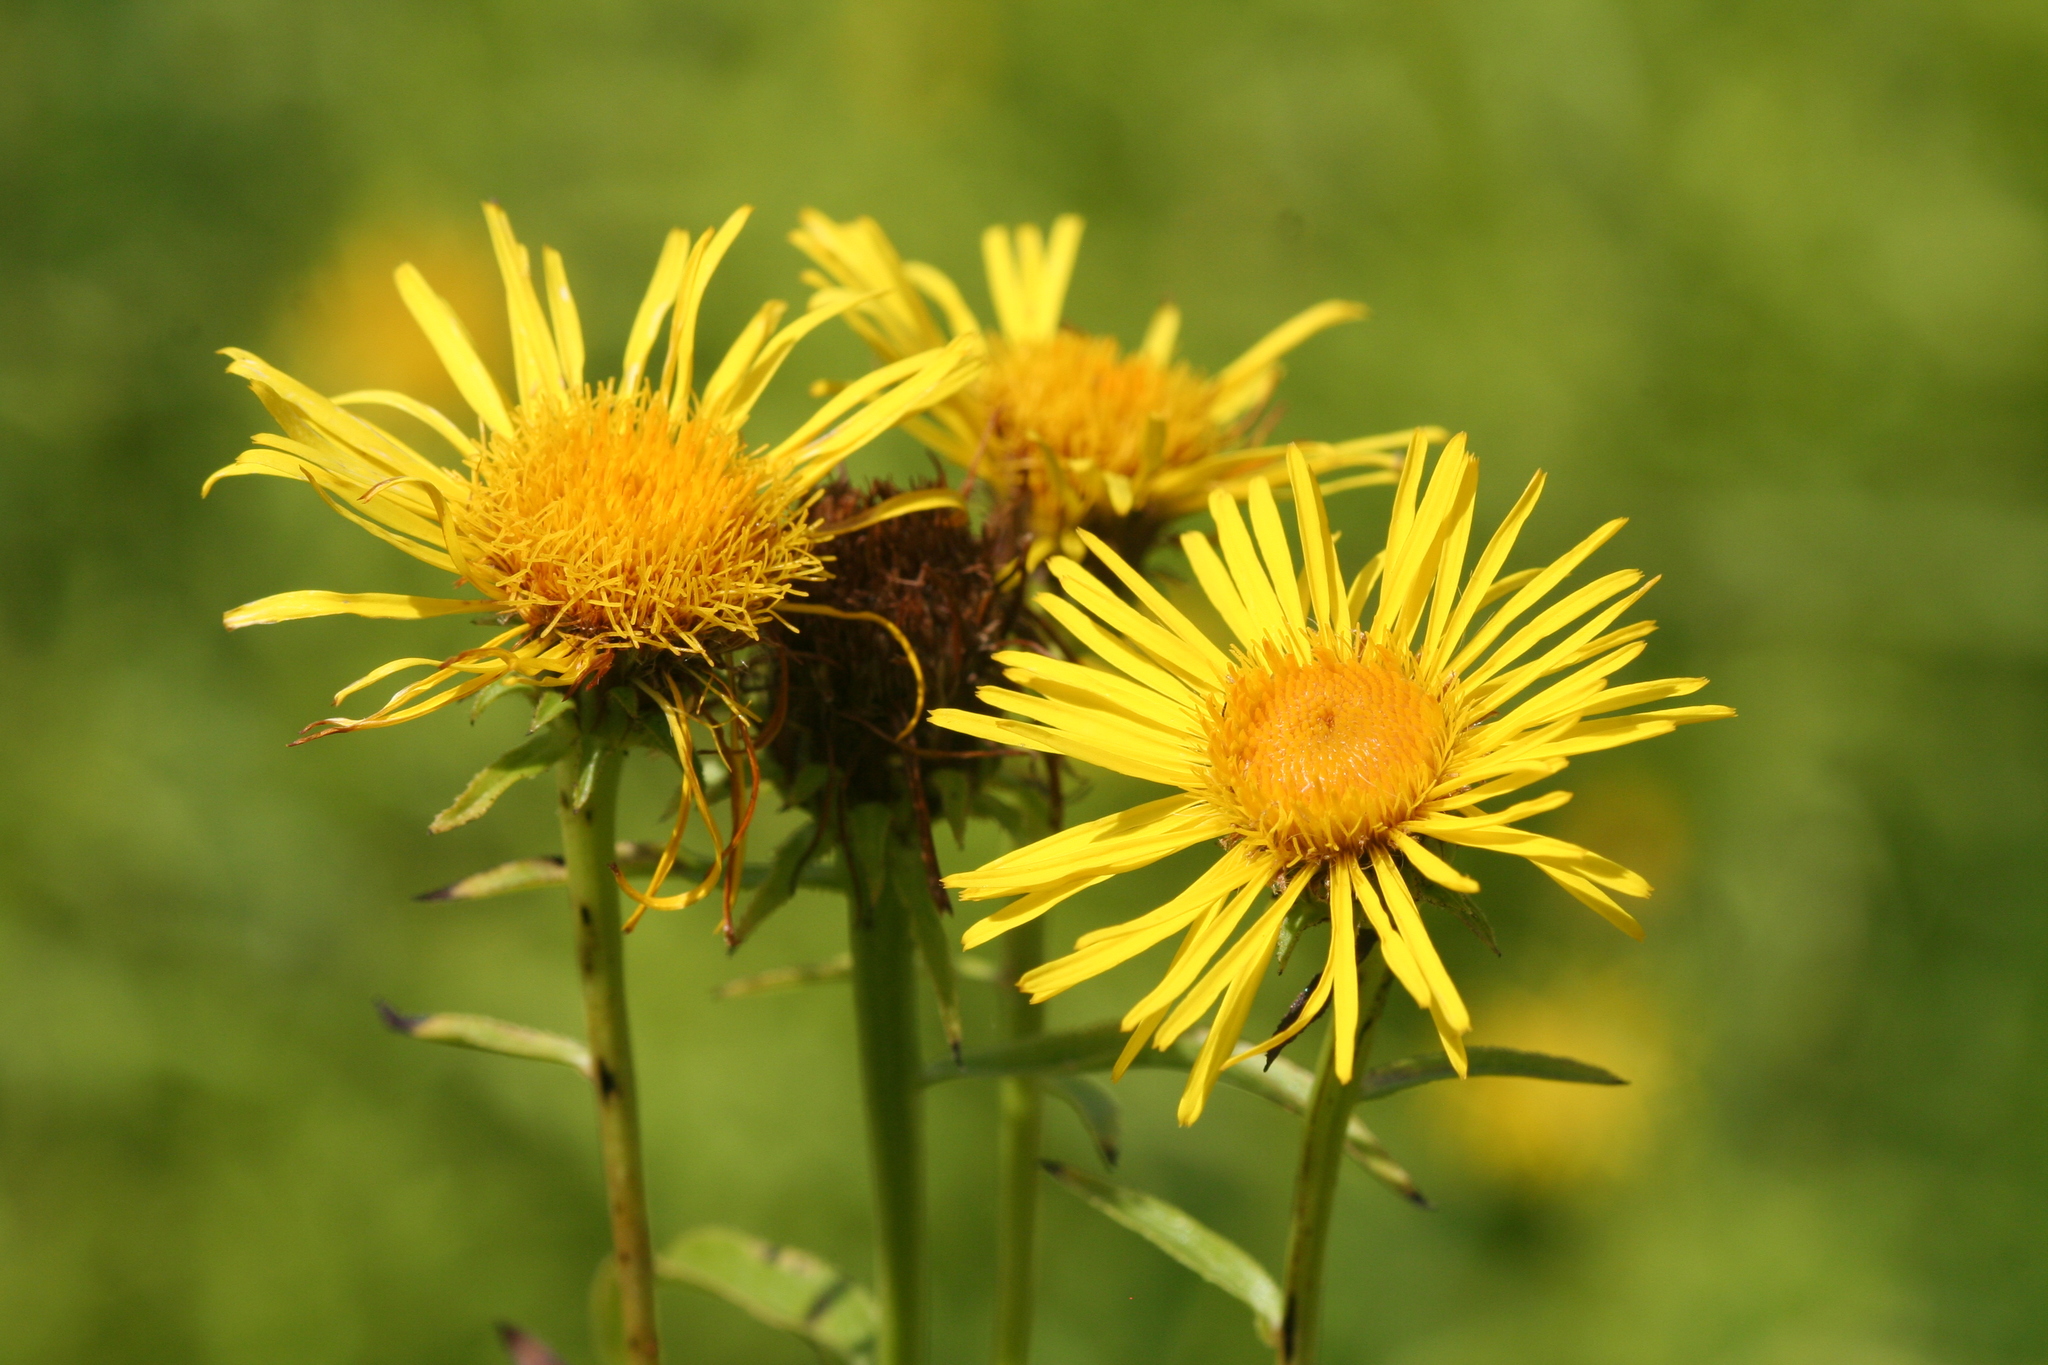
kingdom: Plantae
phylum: Tracheophyta
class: Magnoliopsida
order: Asterales
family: Asteraceae
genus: Pentanema
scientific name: Pentanema salicinum
